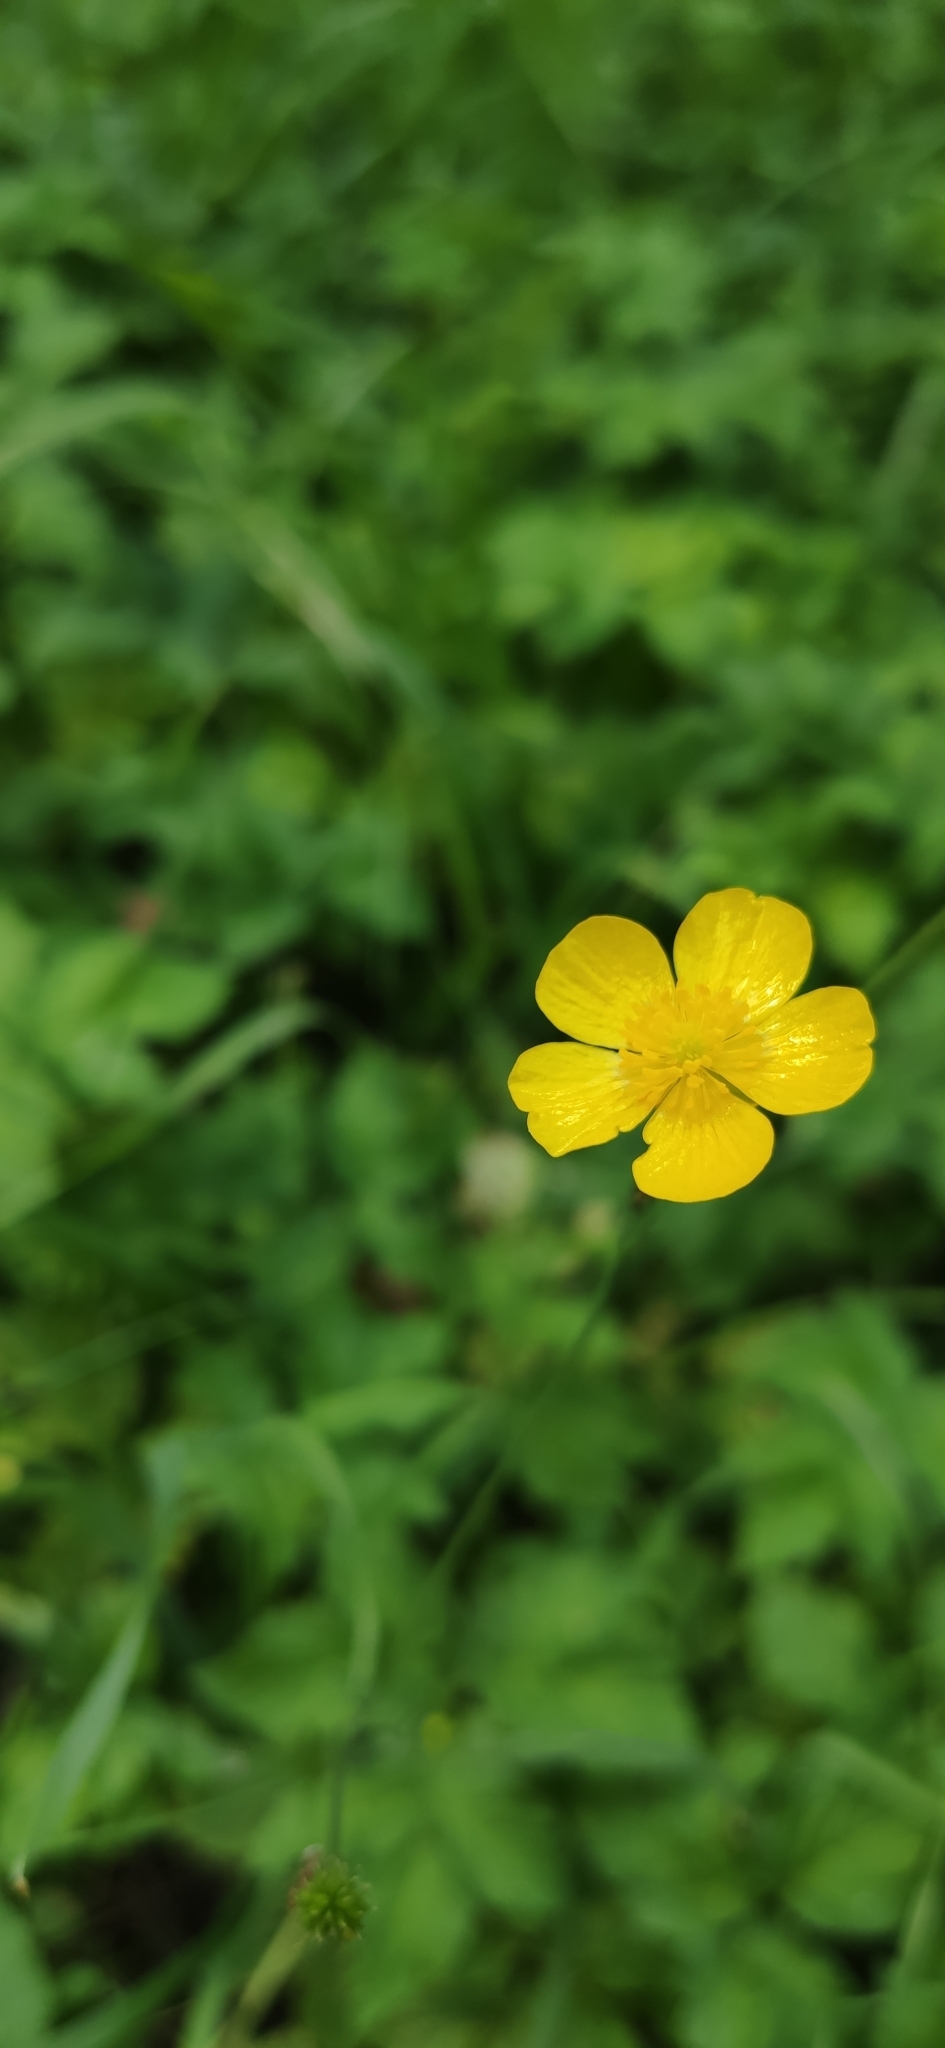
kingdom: Plantae
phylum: Tracheophyta
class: Magnoliopsida
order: Ranunculales
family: Ranunculaceae
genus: Ranunculus
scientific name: Ranunculus acris
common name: Meadow buttercup
